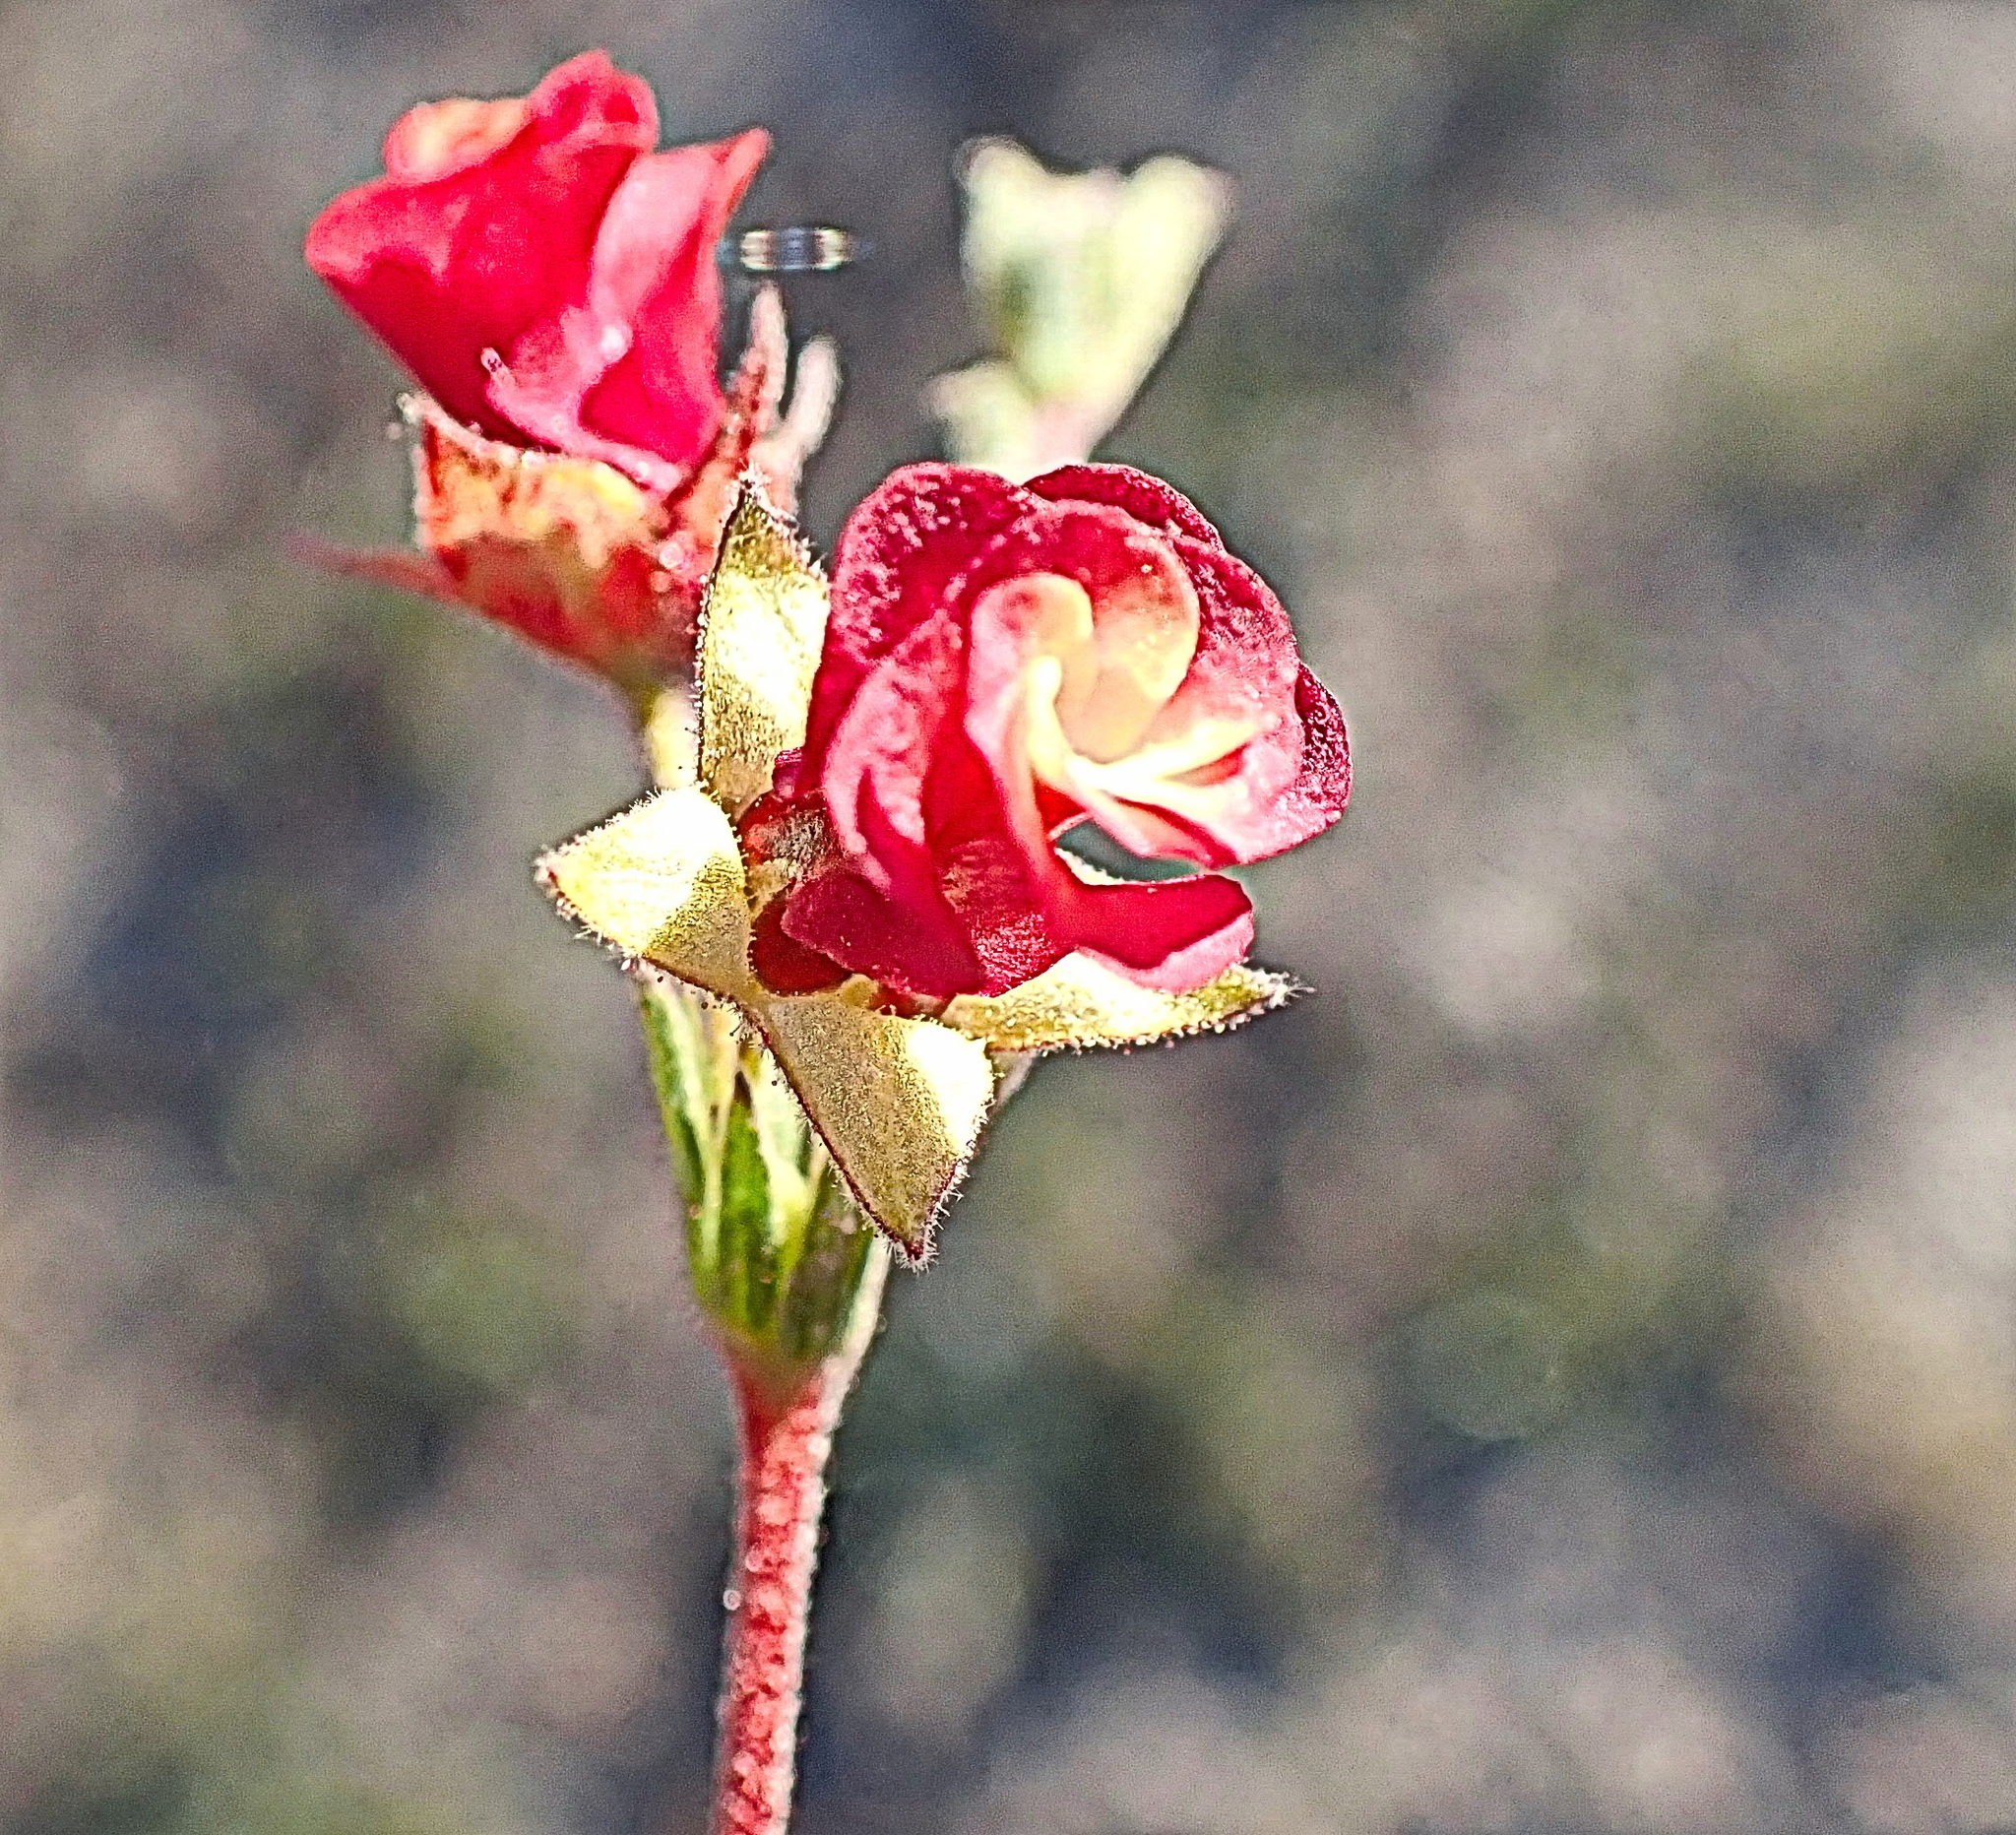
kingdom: Plantae
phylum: Tracheophyta
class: Magnoliopsida
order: Malvales
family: Malvaceae
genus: Hermannia
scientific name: Hermannia flammula
